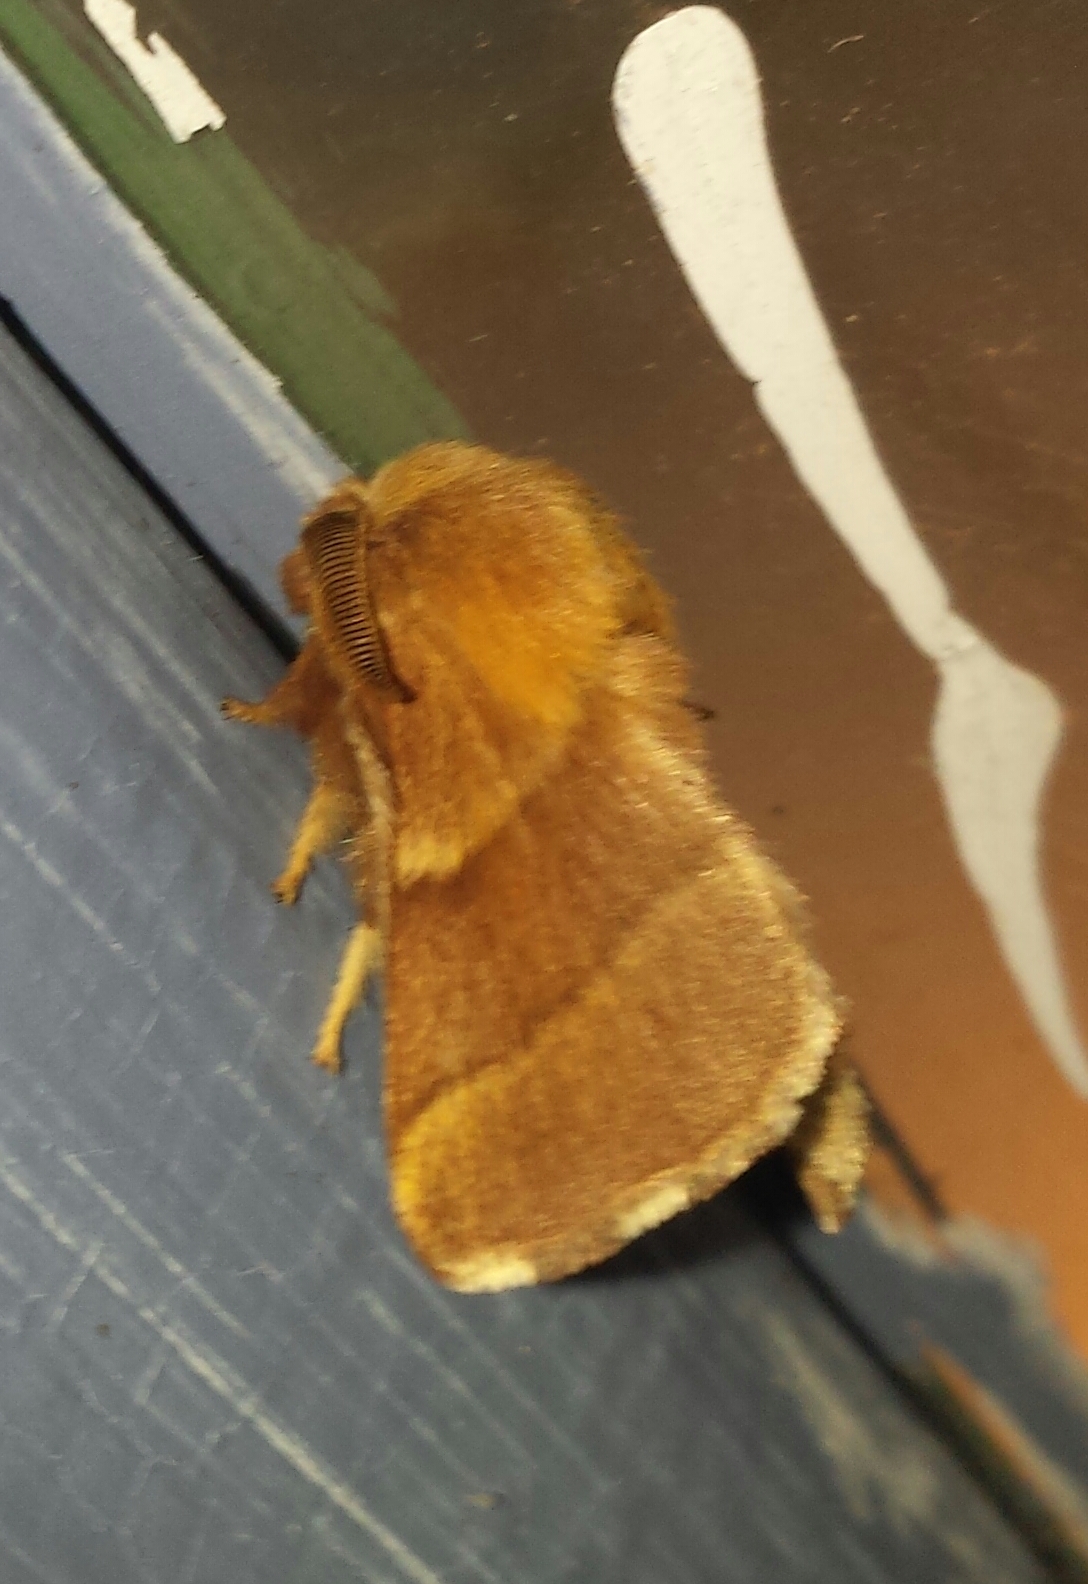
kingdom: Animalia
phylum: Arthropoda
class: Insecta
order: Lepidoptera
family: Lasiocampidae
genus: Malacosoma
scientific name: Malacosoma disstria
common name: Forest tent caterpillar
